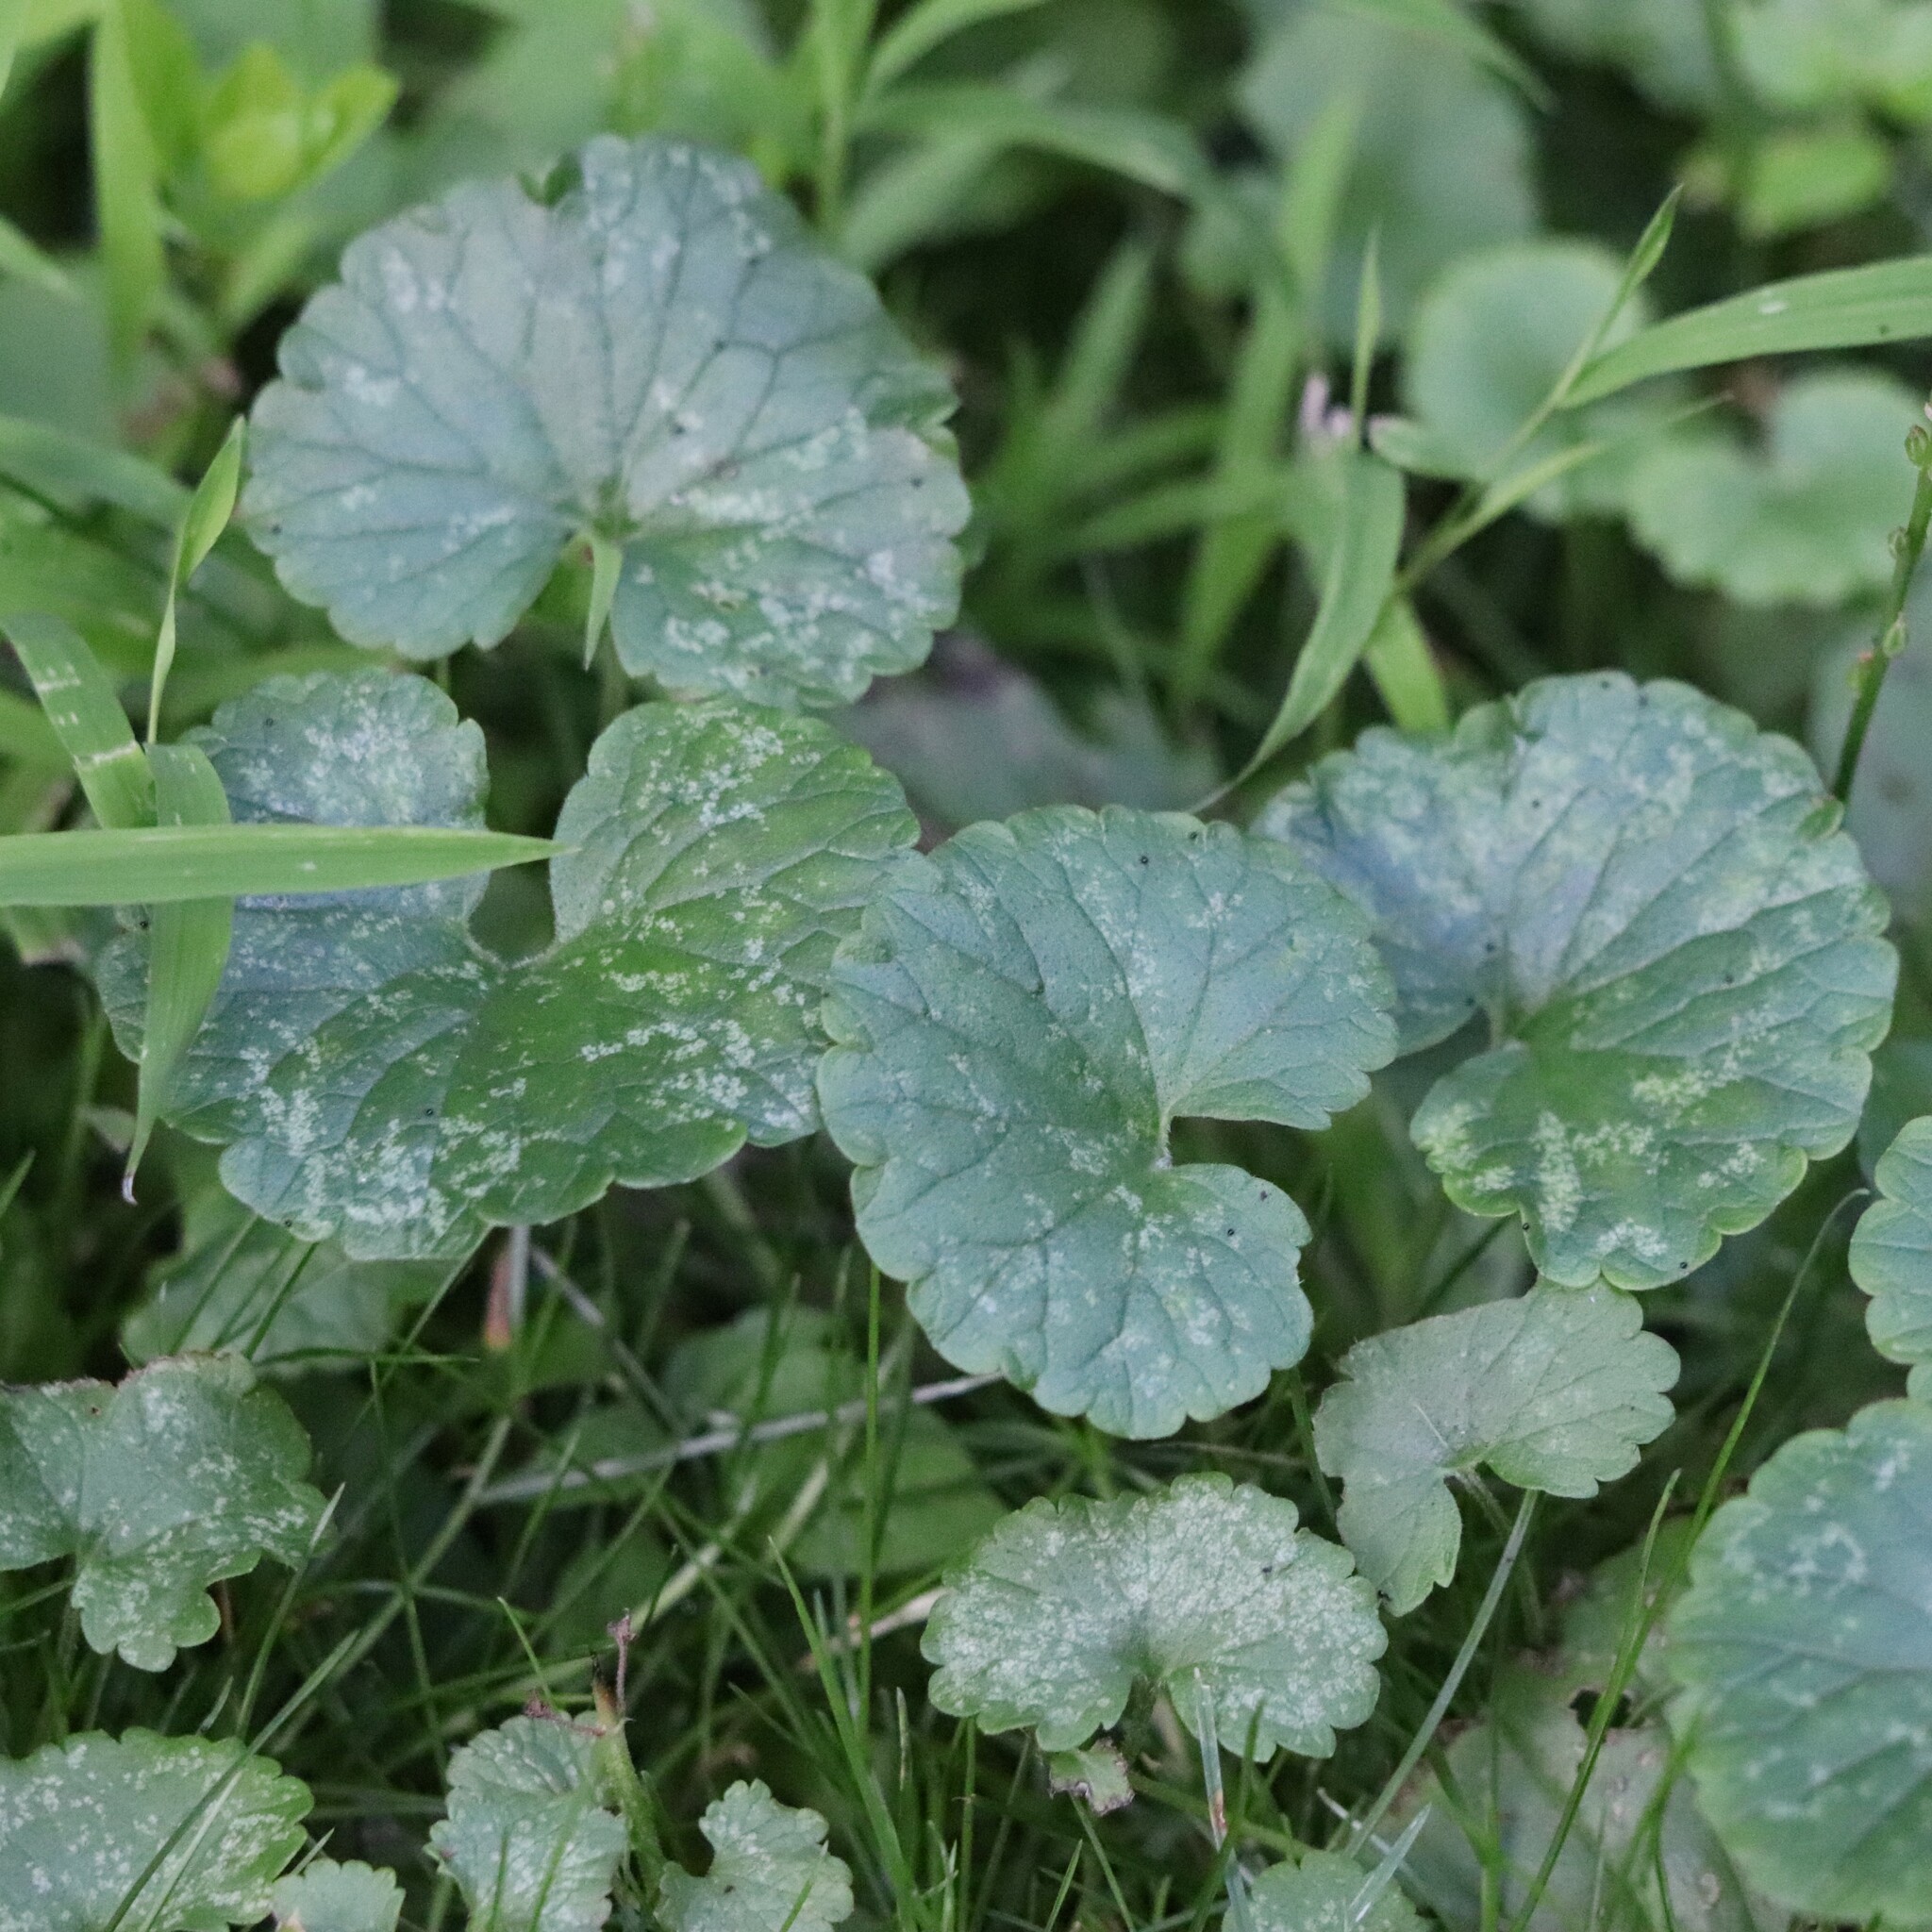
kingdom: Plantae
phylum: Tracheophyta
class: Magnoliopsida
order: Lamiales
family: Lamiaceae
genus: Glechoma
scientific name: Glechoma hederacea
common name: Ground ivy
